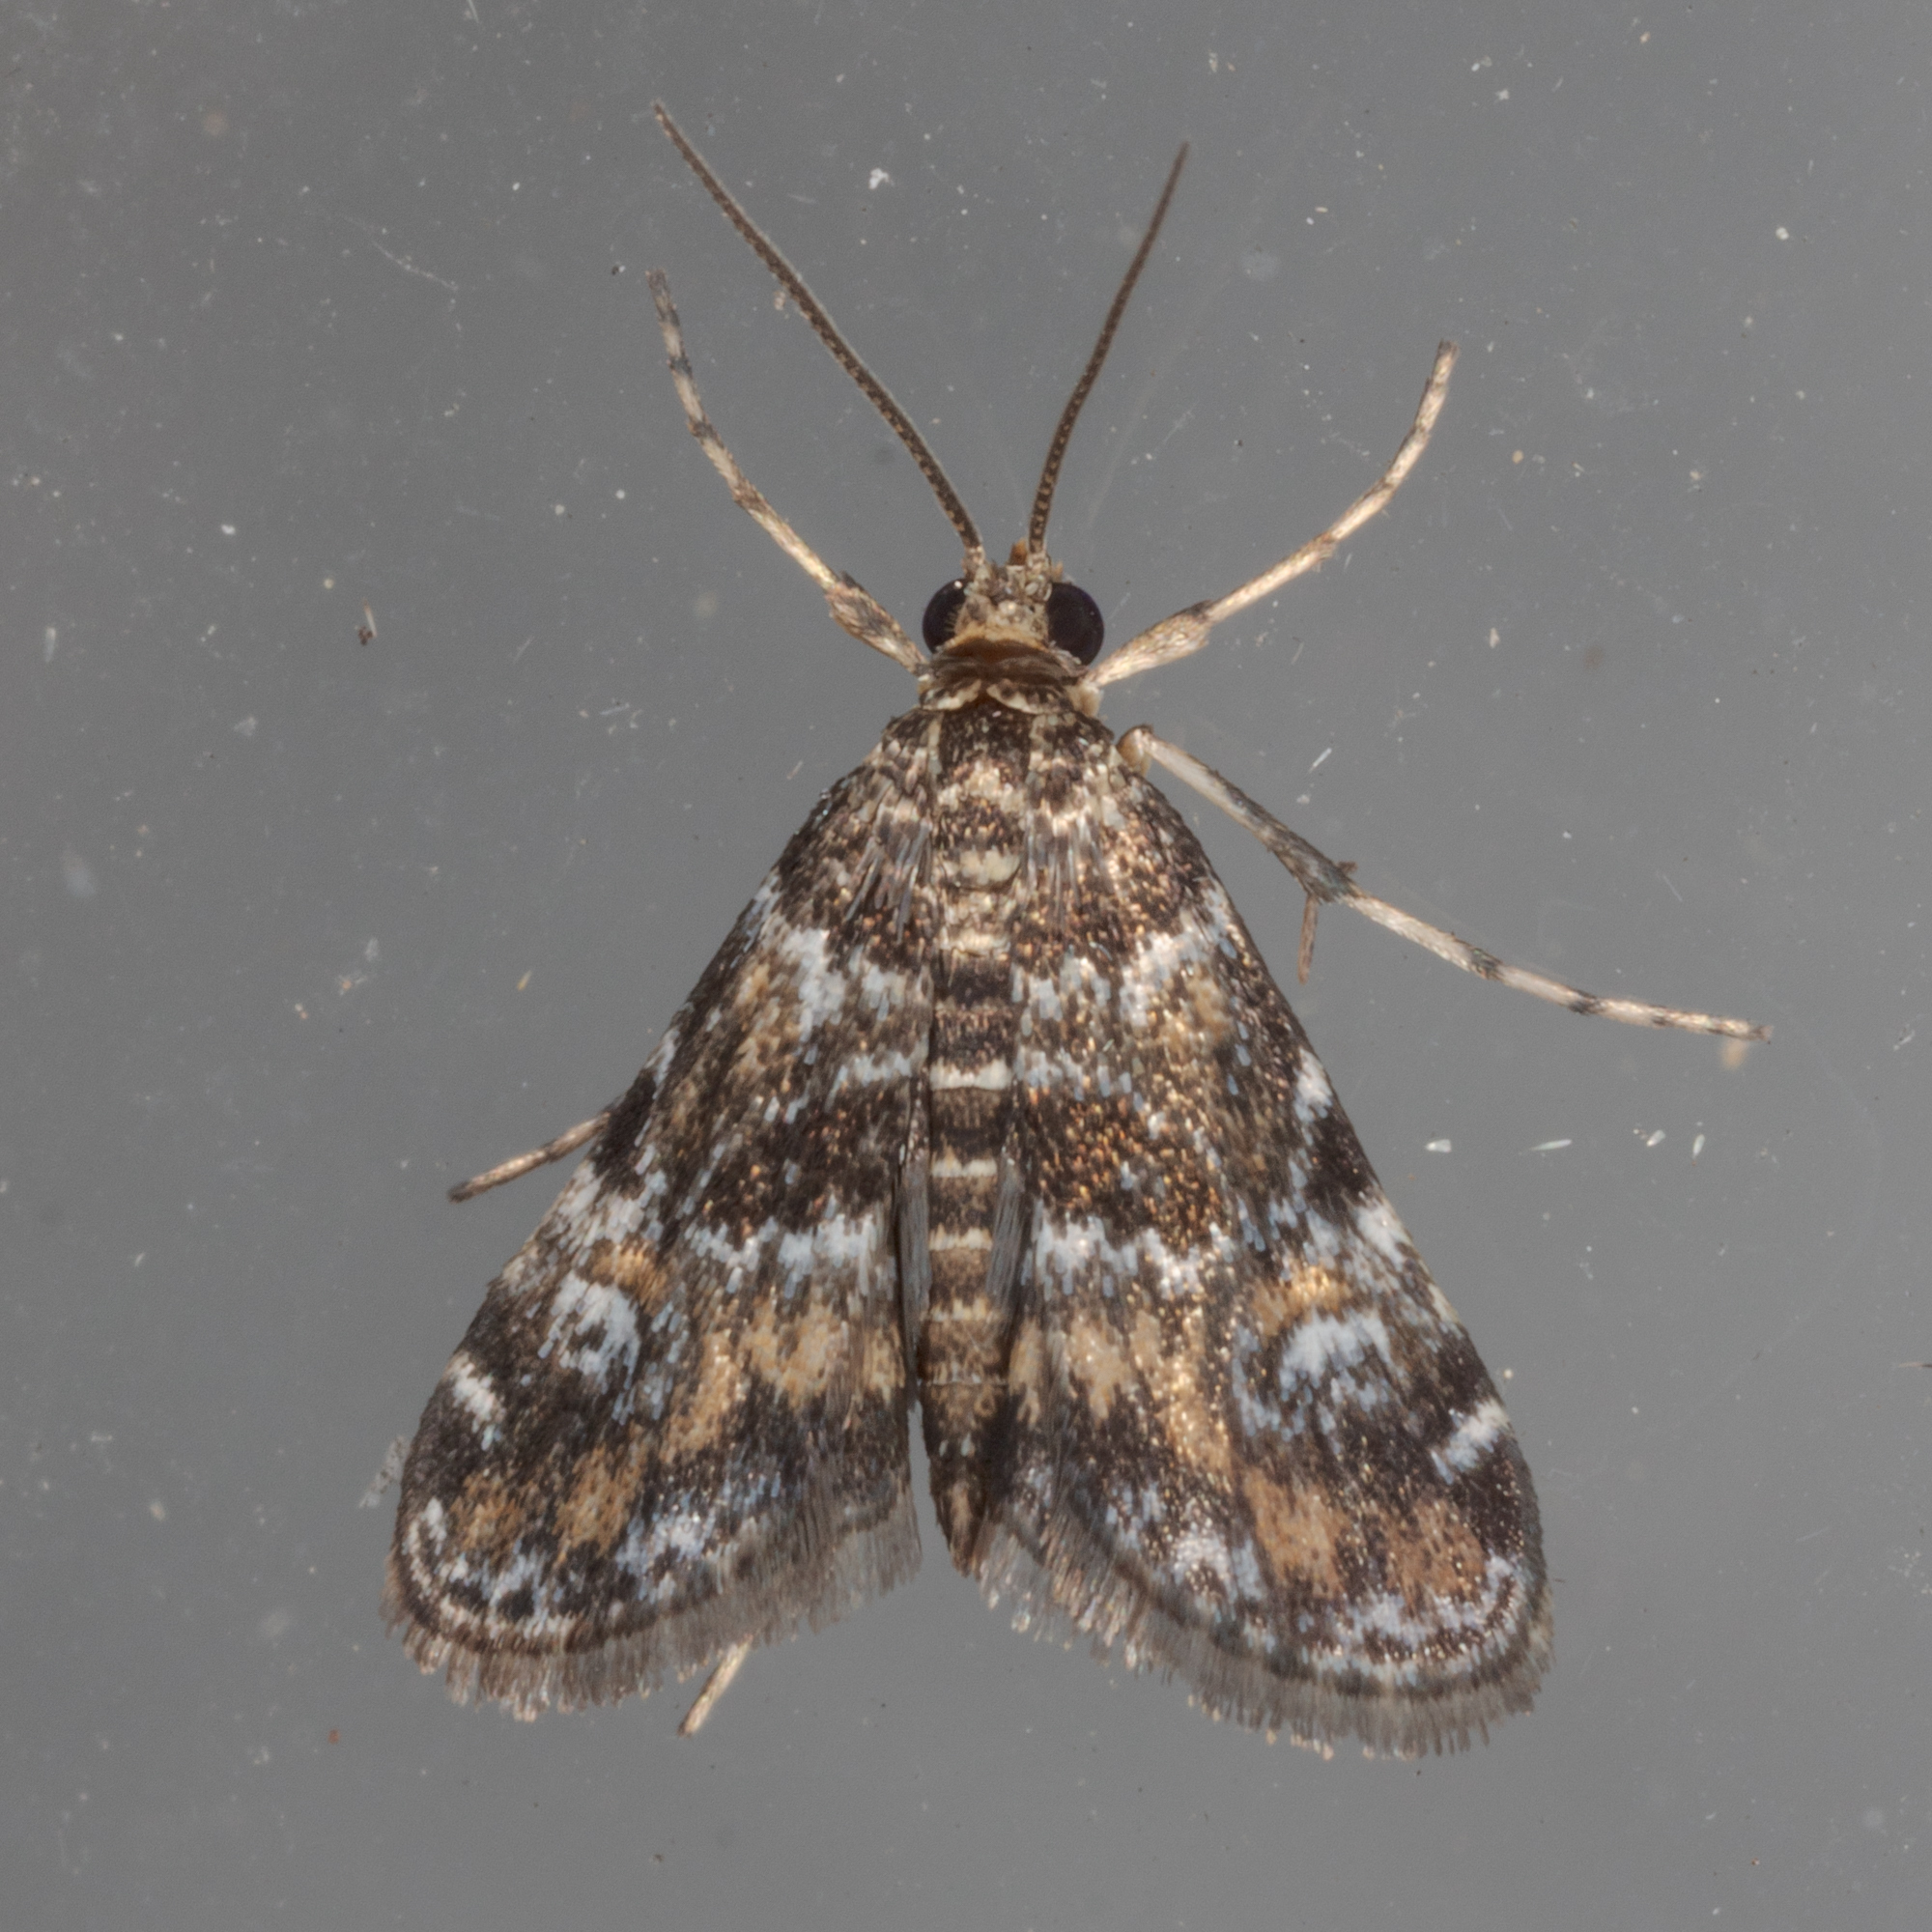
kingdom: Animalia
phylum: Arthropoda
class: Insecta
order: Lepidoptera
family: Crambidae
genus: Elophila
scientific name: Elophila obliteralis
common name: Waterlily leafcutter moth
